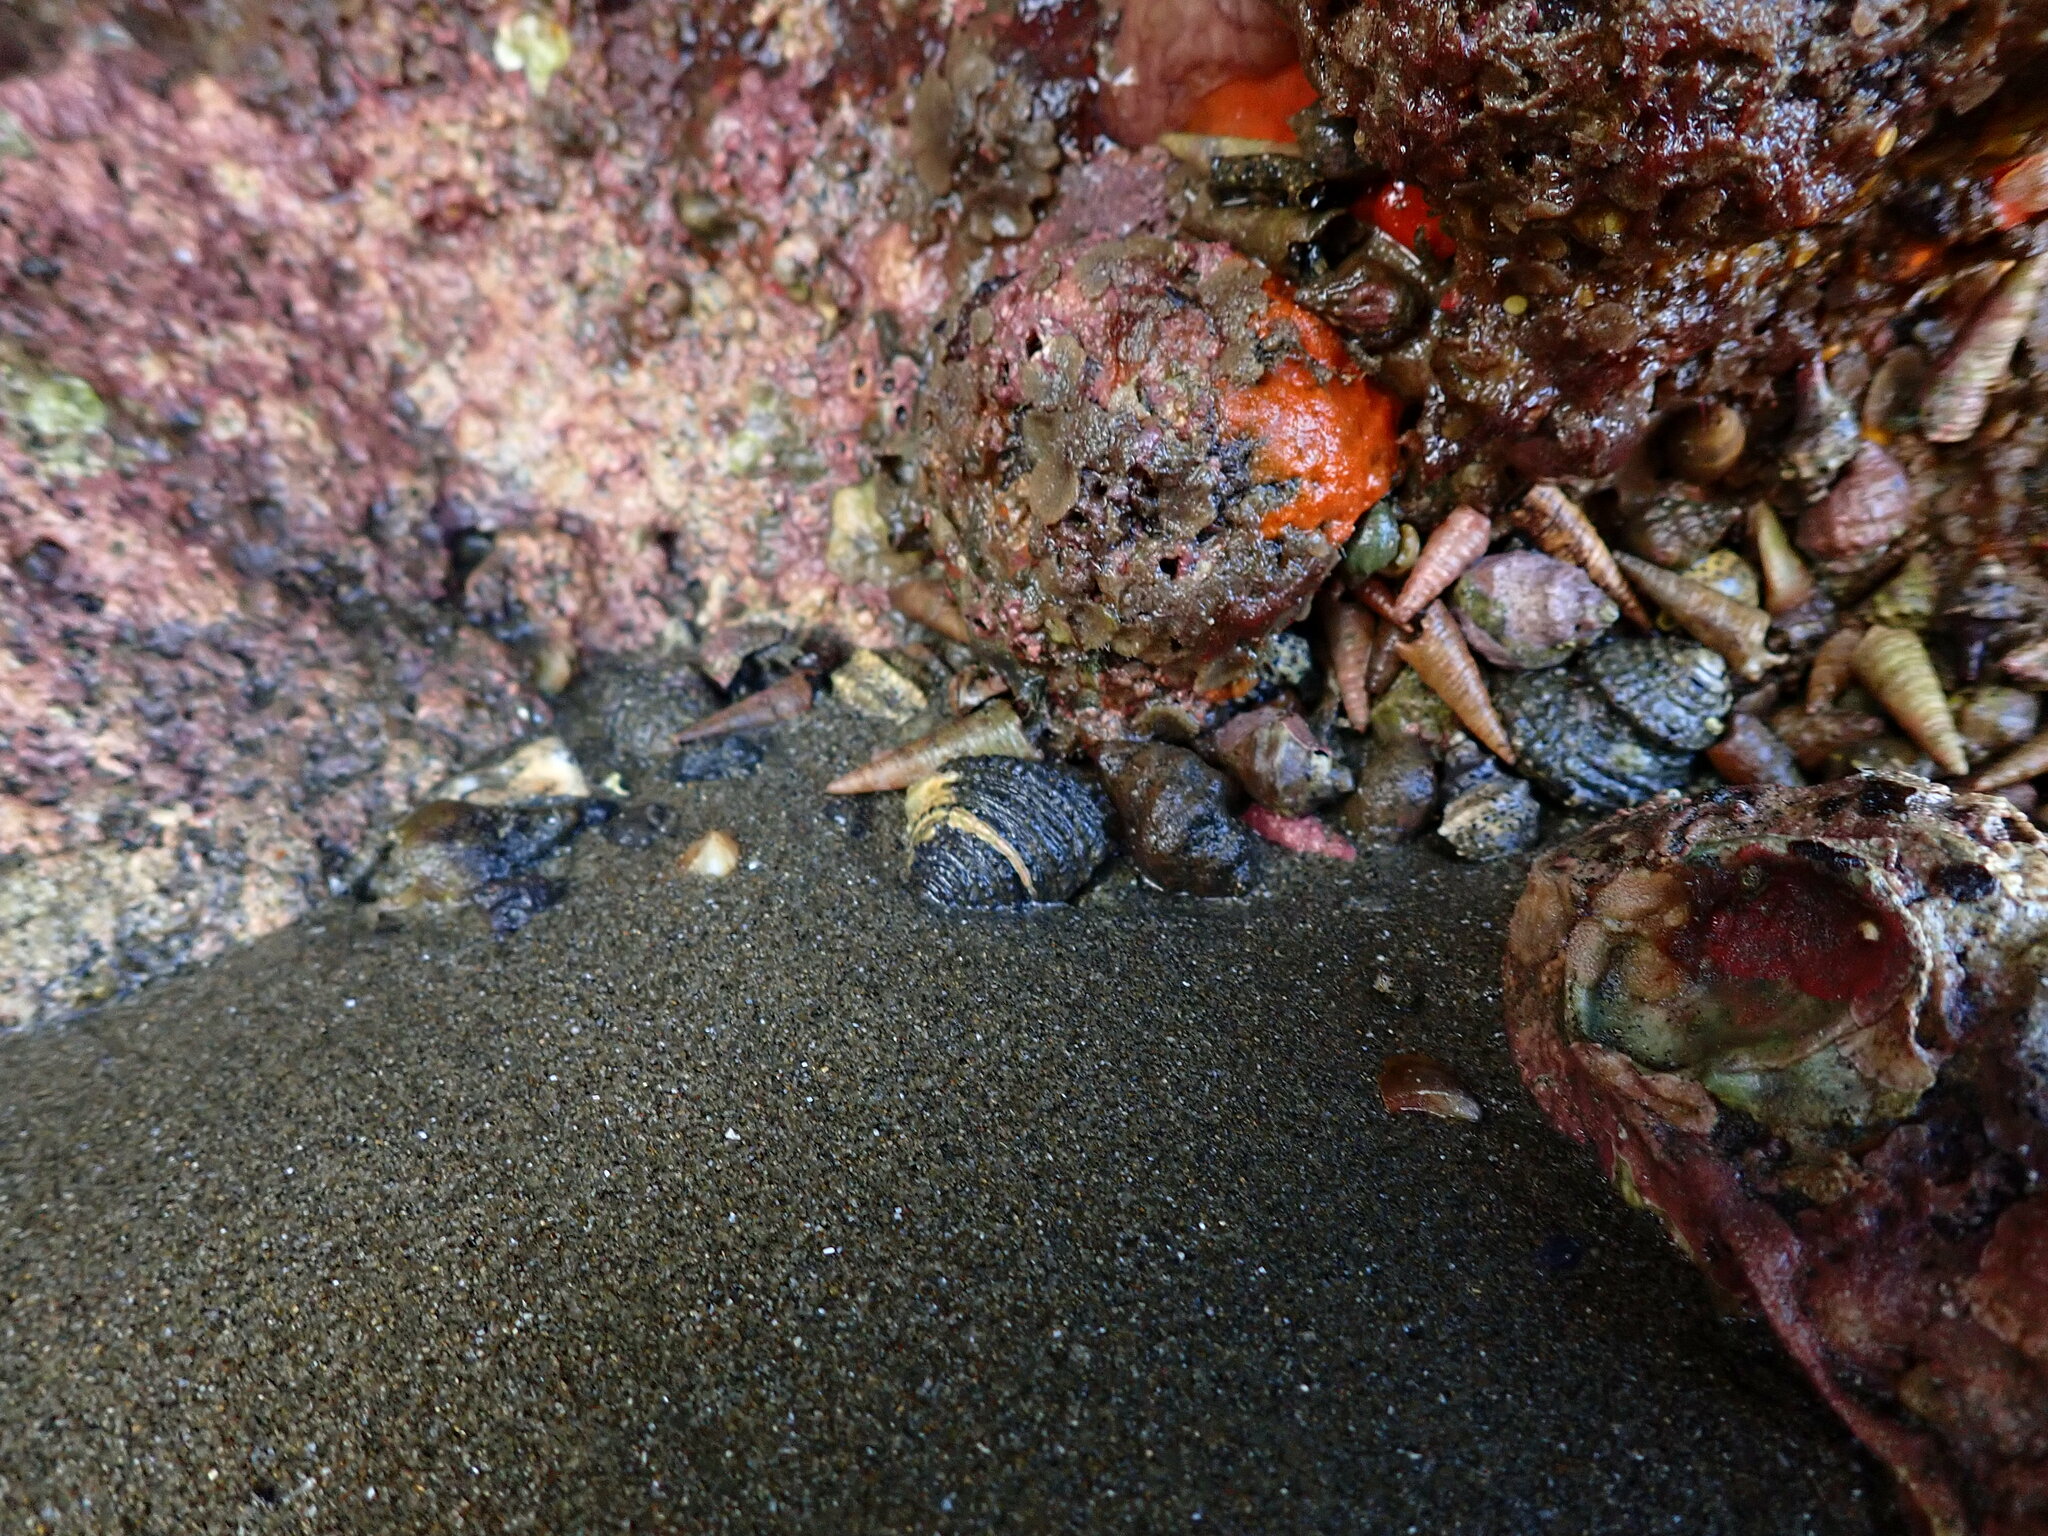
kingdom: Animalia
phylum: Mollusca
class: Gastropoda
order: Trochida
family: Trochidae
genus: Diloma
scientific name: Diloma bicanaliculatum
